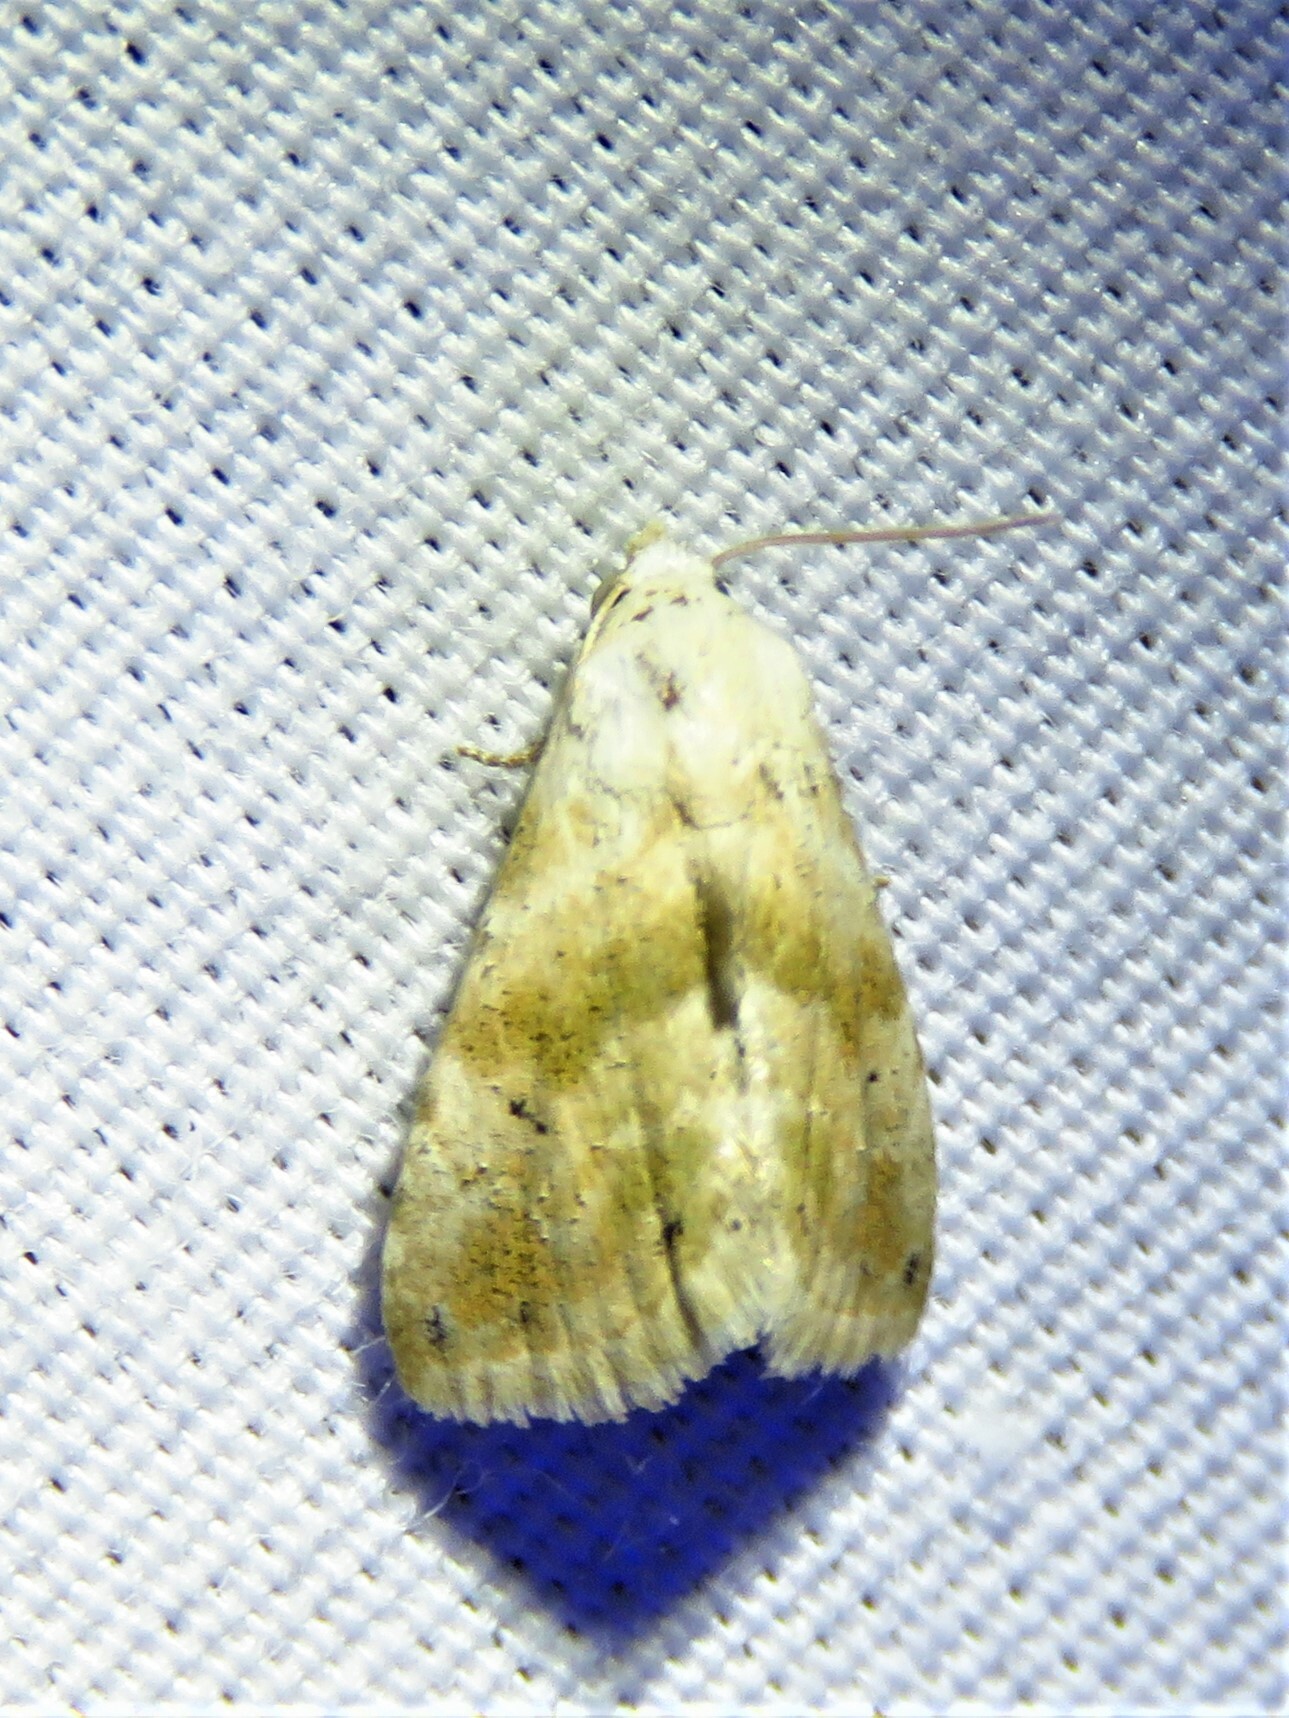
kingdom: Animalia
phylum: Arthropoda
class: Insecta
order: Lepidoptera
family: Noctuidae
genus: Eublemma
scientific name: Eublemma minima
